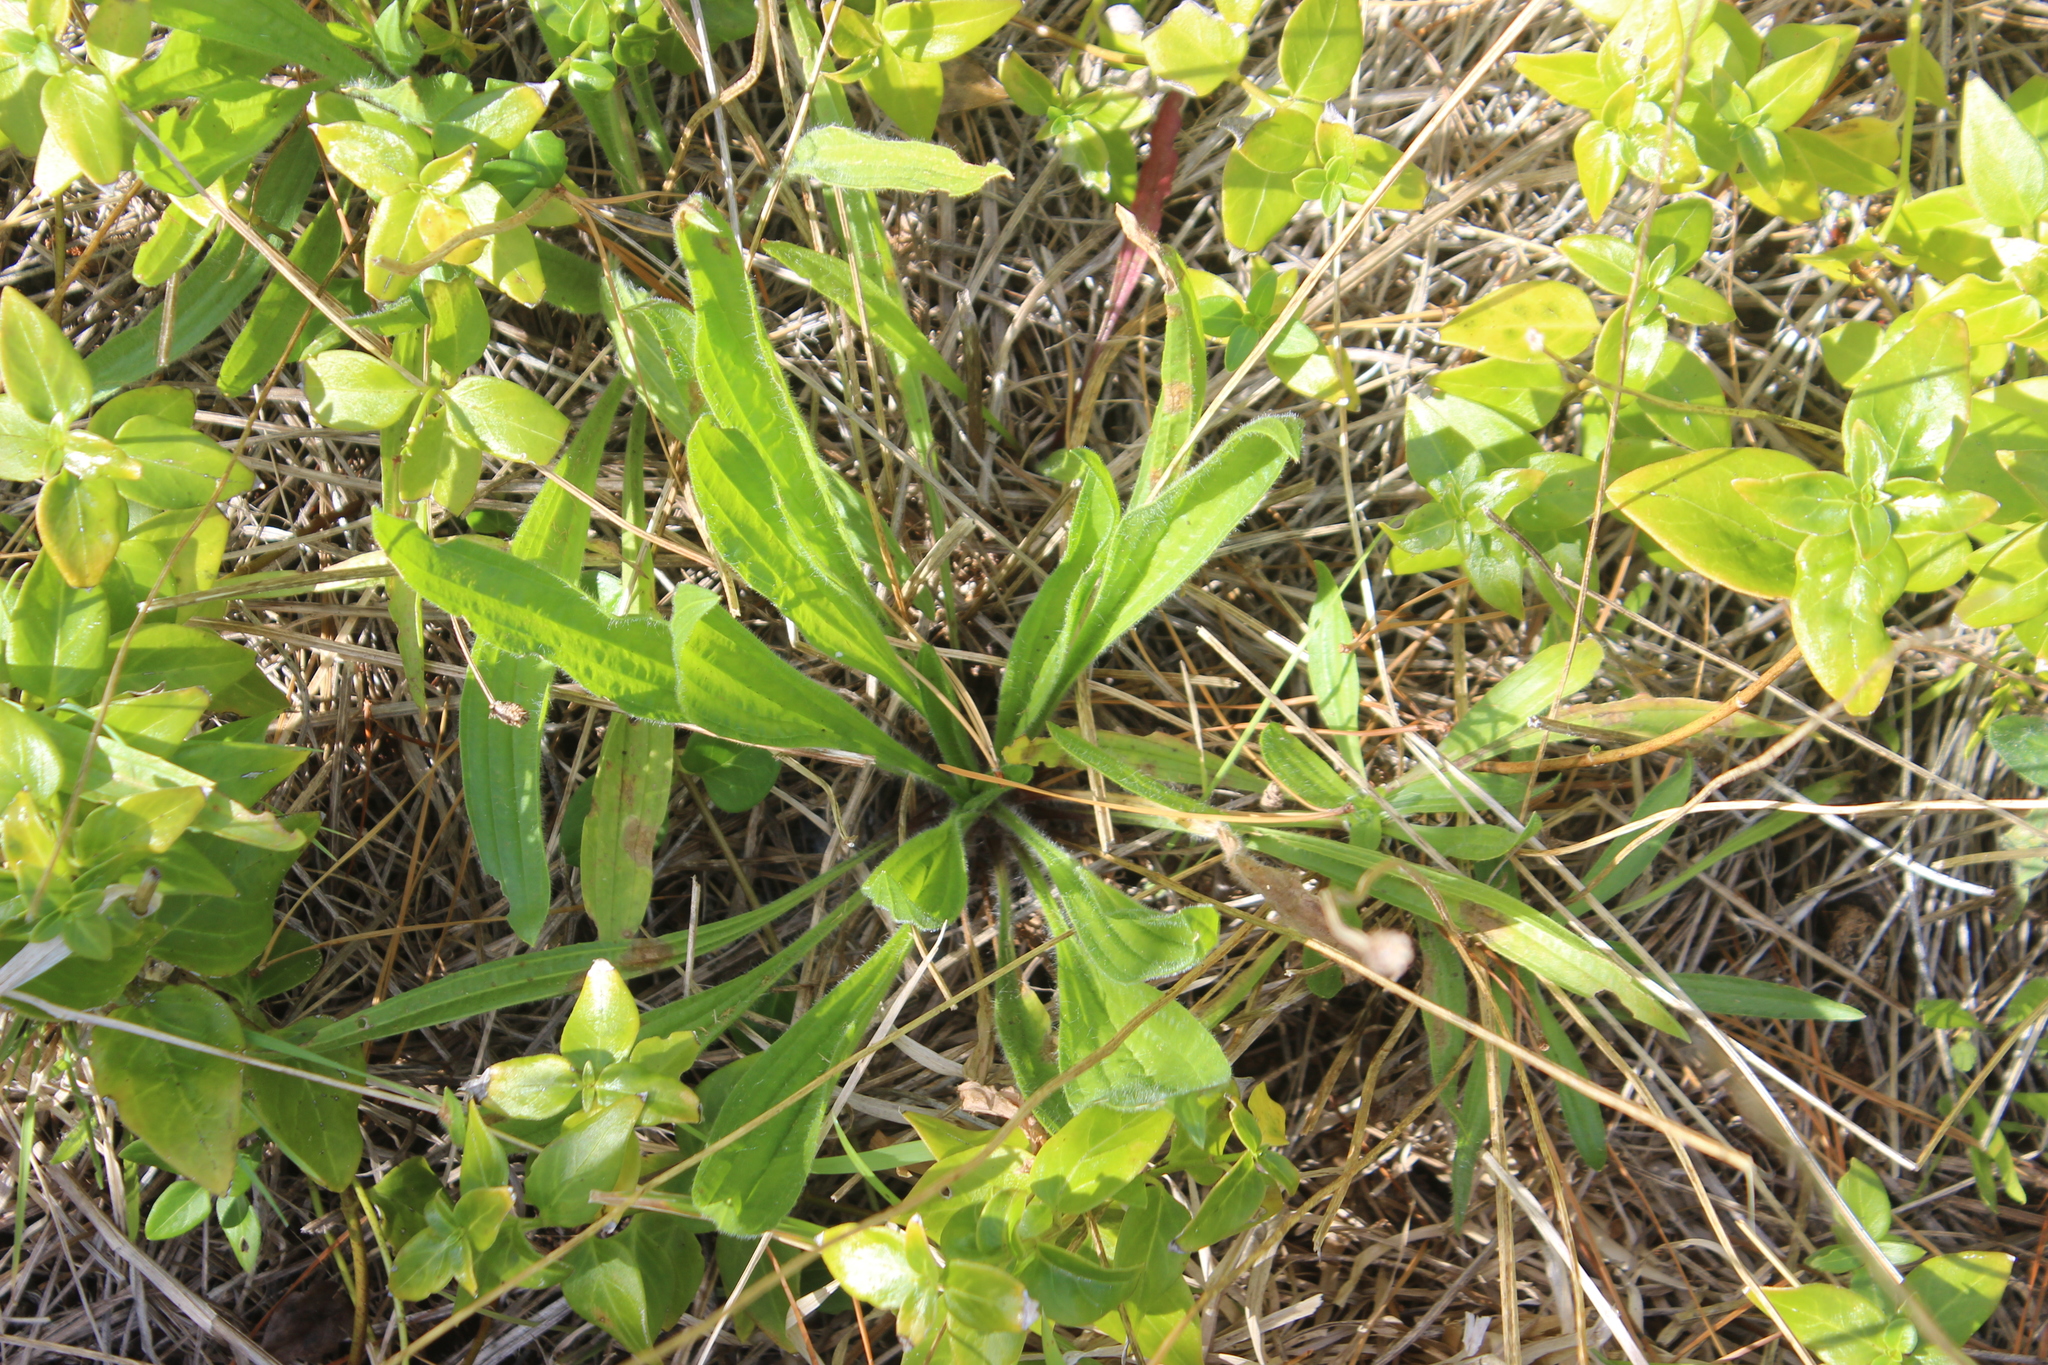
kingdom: Plantae
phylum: Tracheophyta
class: Magnoliopsida
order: Lamiales
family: Plantaginaceae
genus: Plantago
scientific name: Plantago lanceolata
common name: Ribwort plantain
